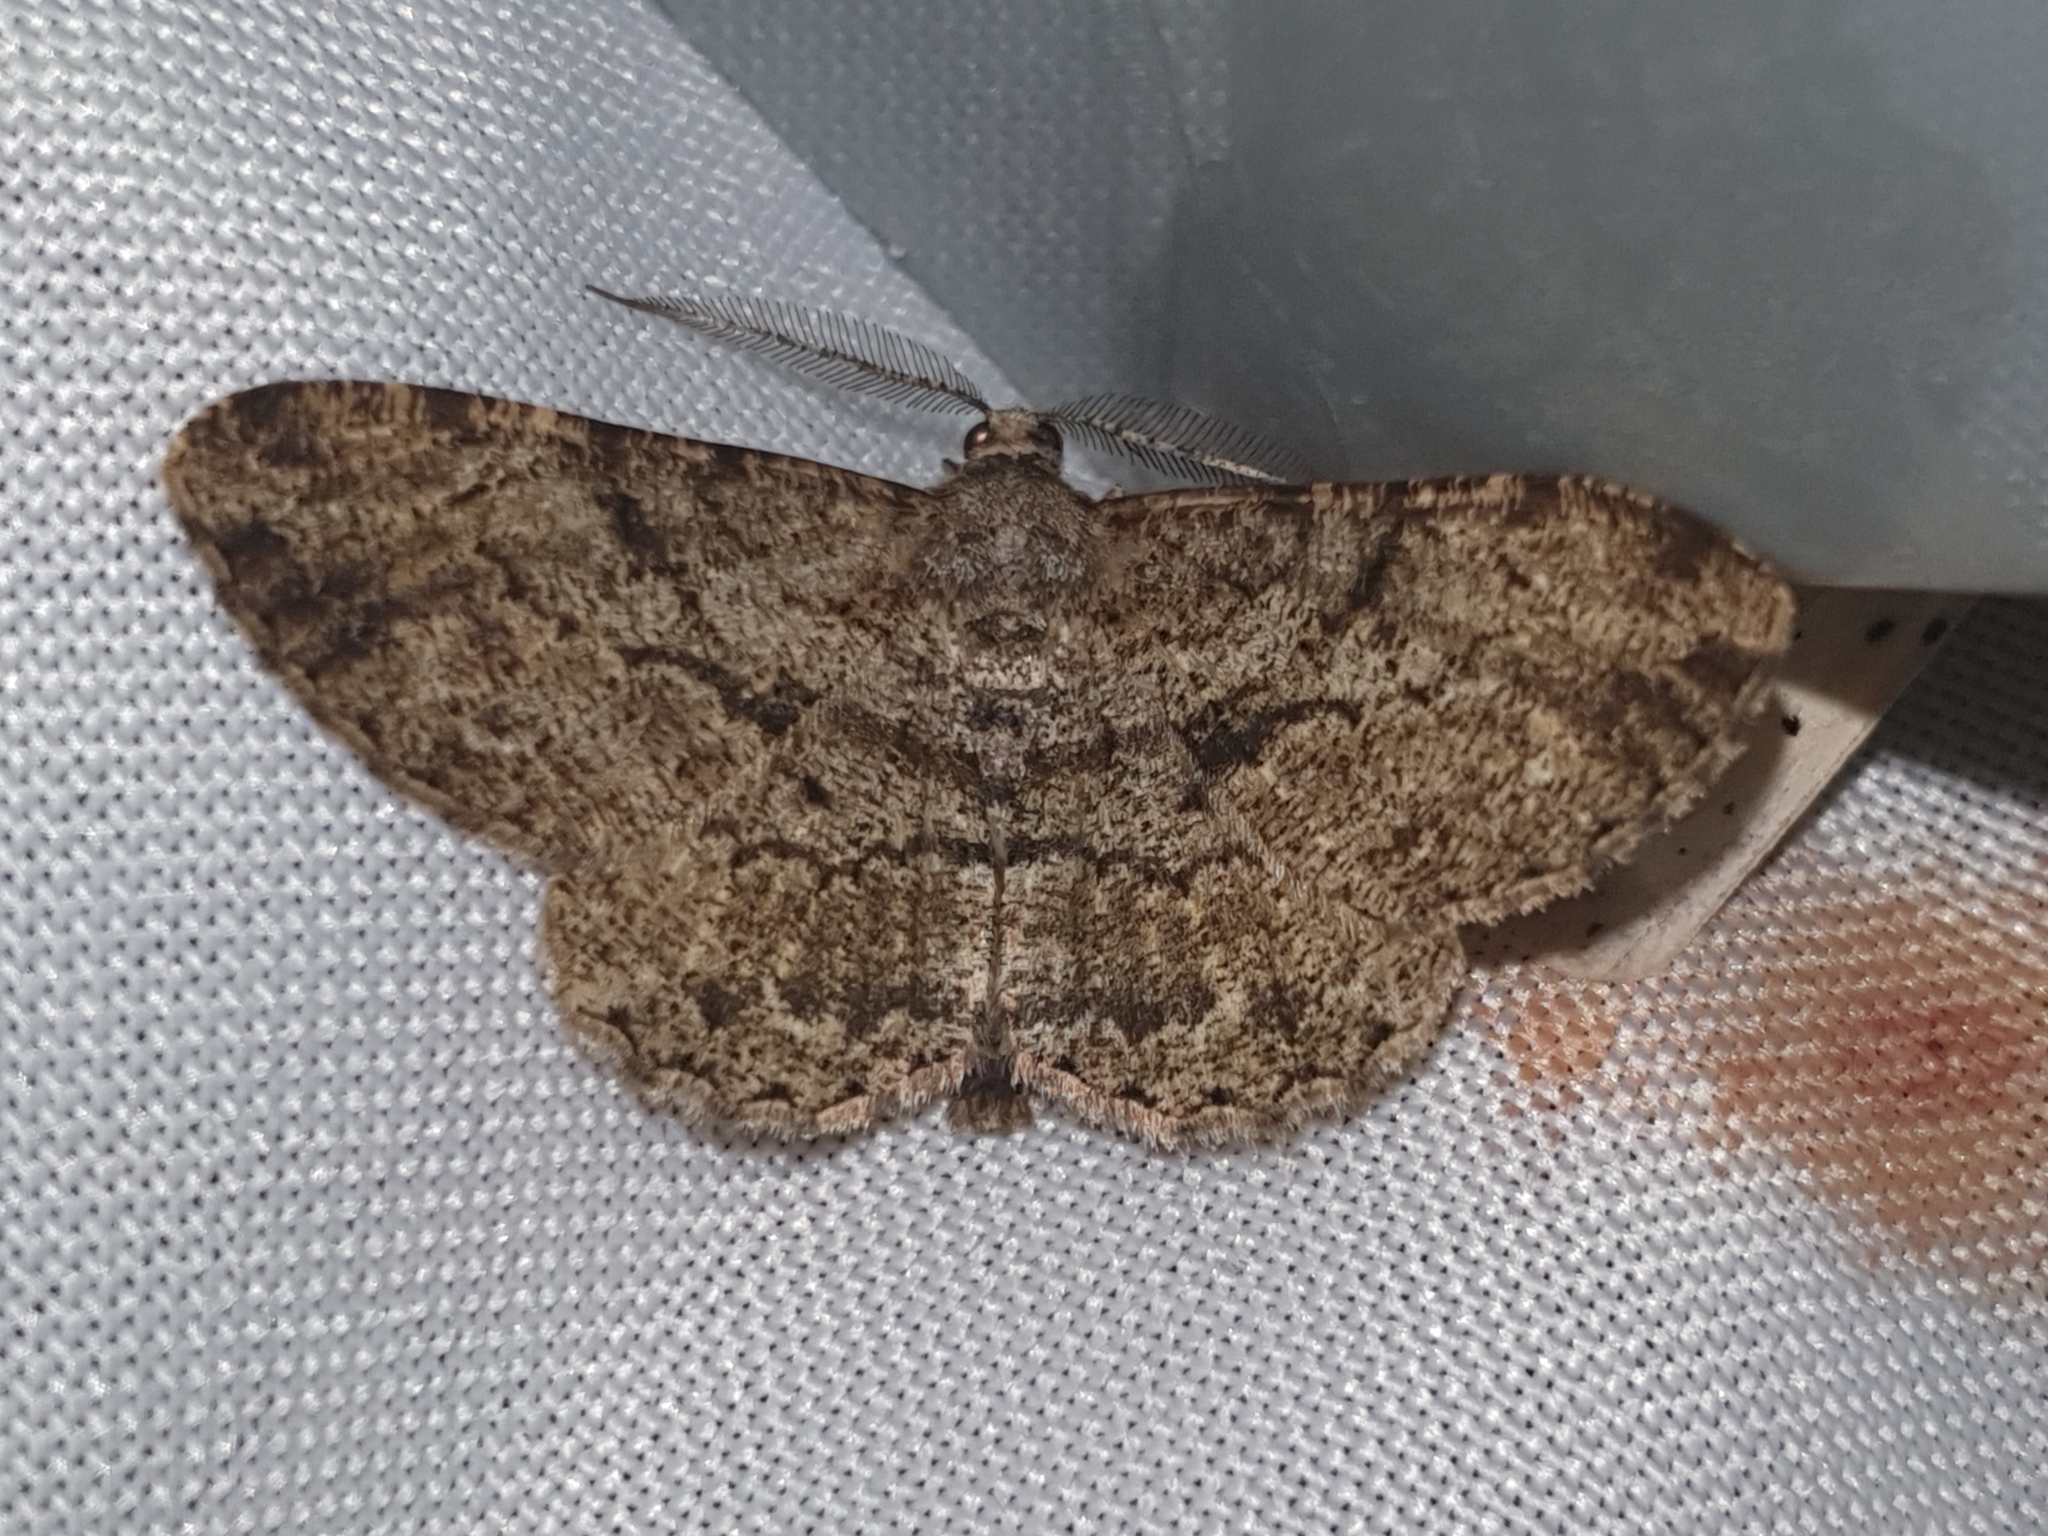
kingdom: Animalia
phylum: Arthropoda
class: Insecta
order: Lepidoptera
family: Geometridae
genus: Peribatodes
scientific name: Peribatodes rhomboidaria
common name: Willow beauty
